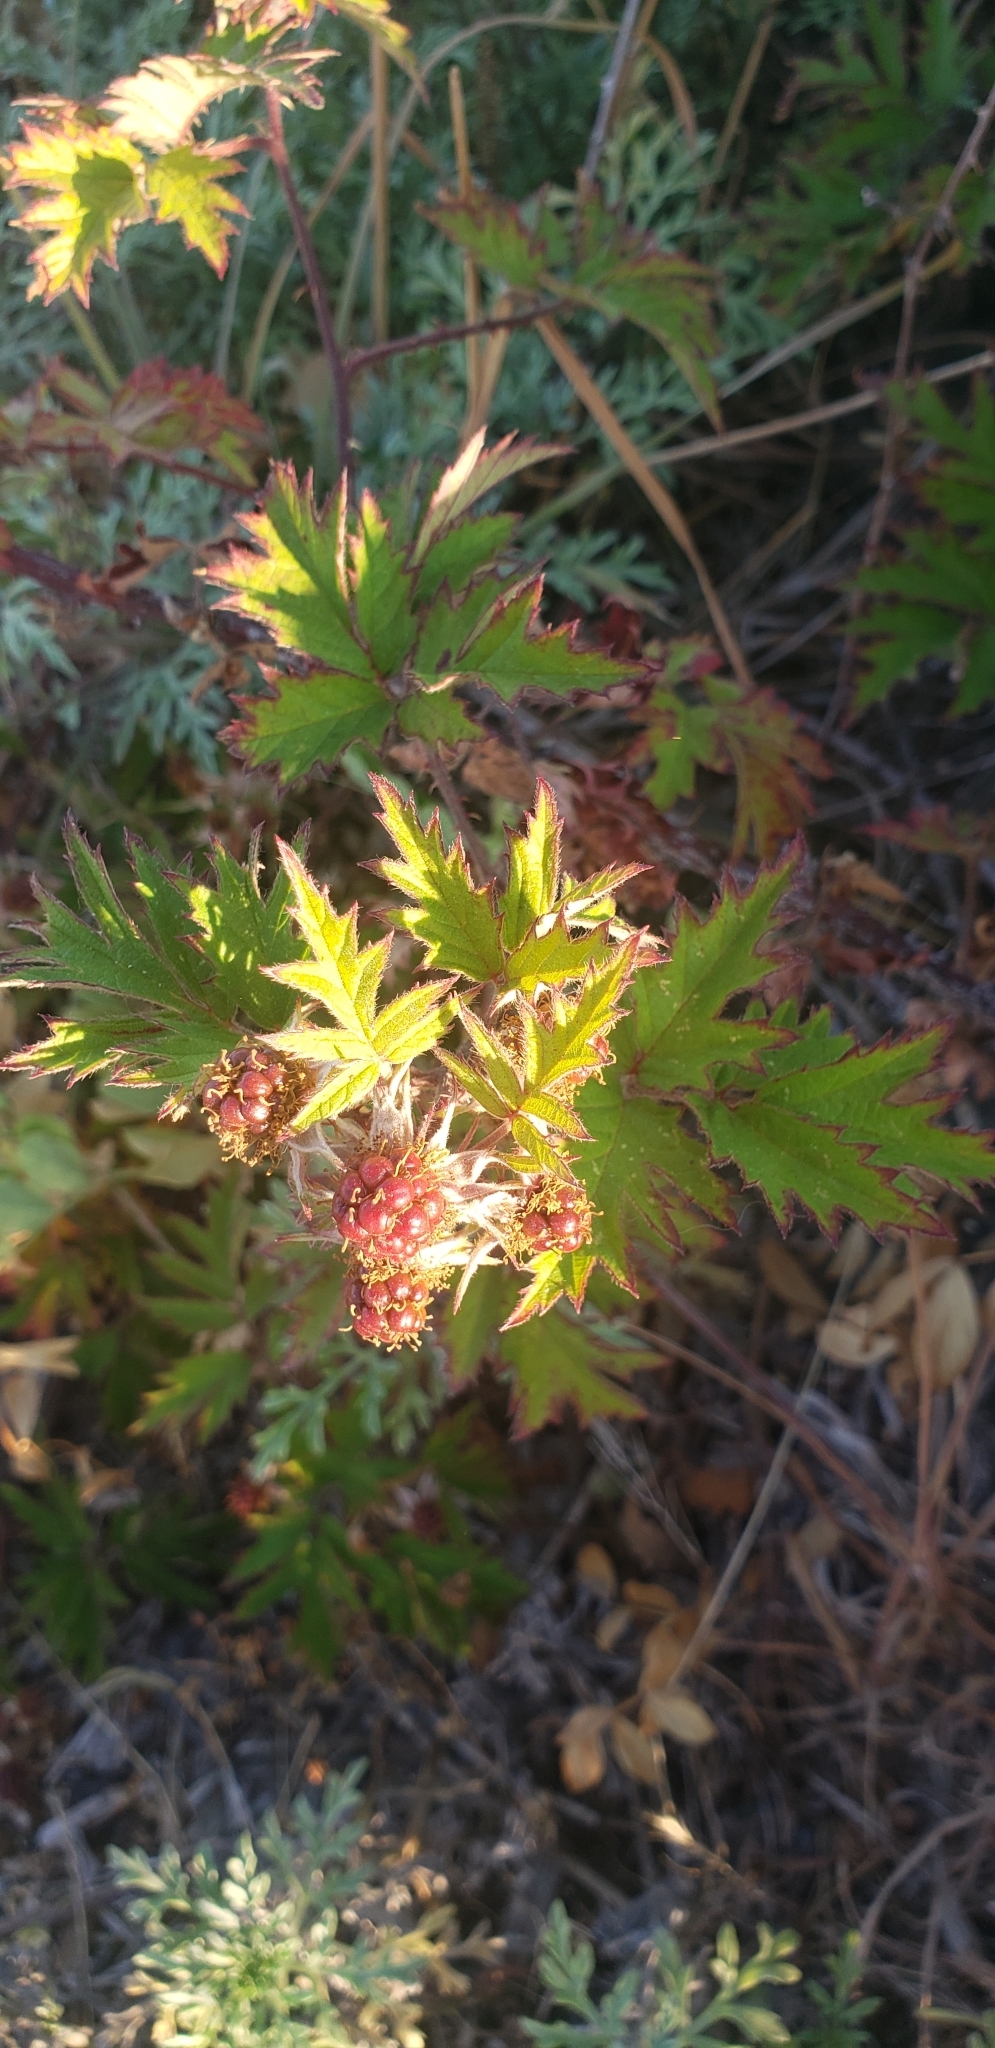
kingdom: Plantae
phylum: Tracheophyta
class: Magnoliopsida
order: Rosales
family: Rosaceae
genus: Rubus
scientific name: Rubus laciniatus
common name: Evergreen blackberry
